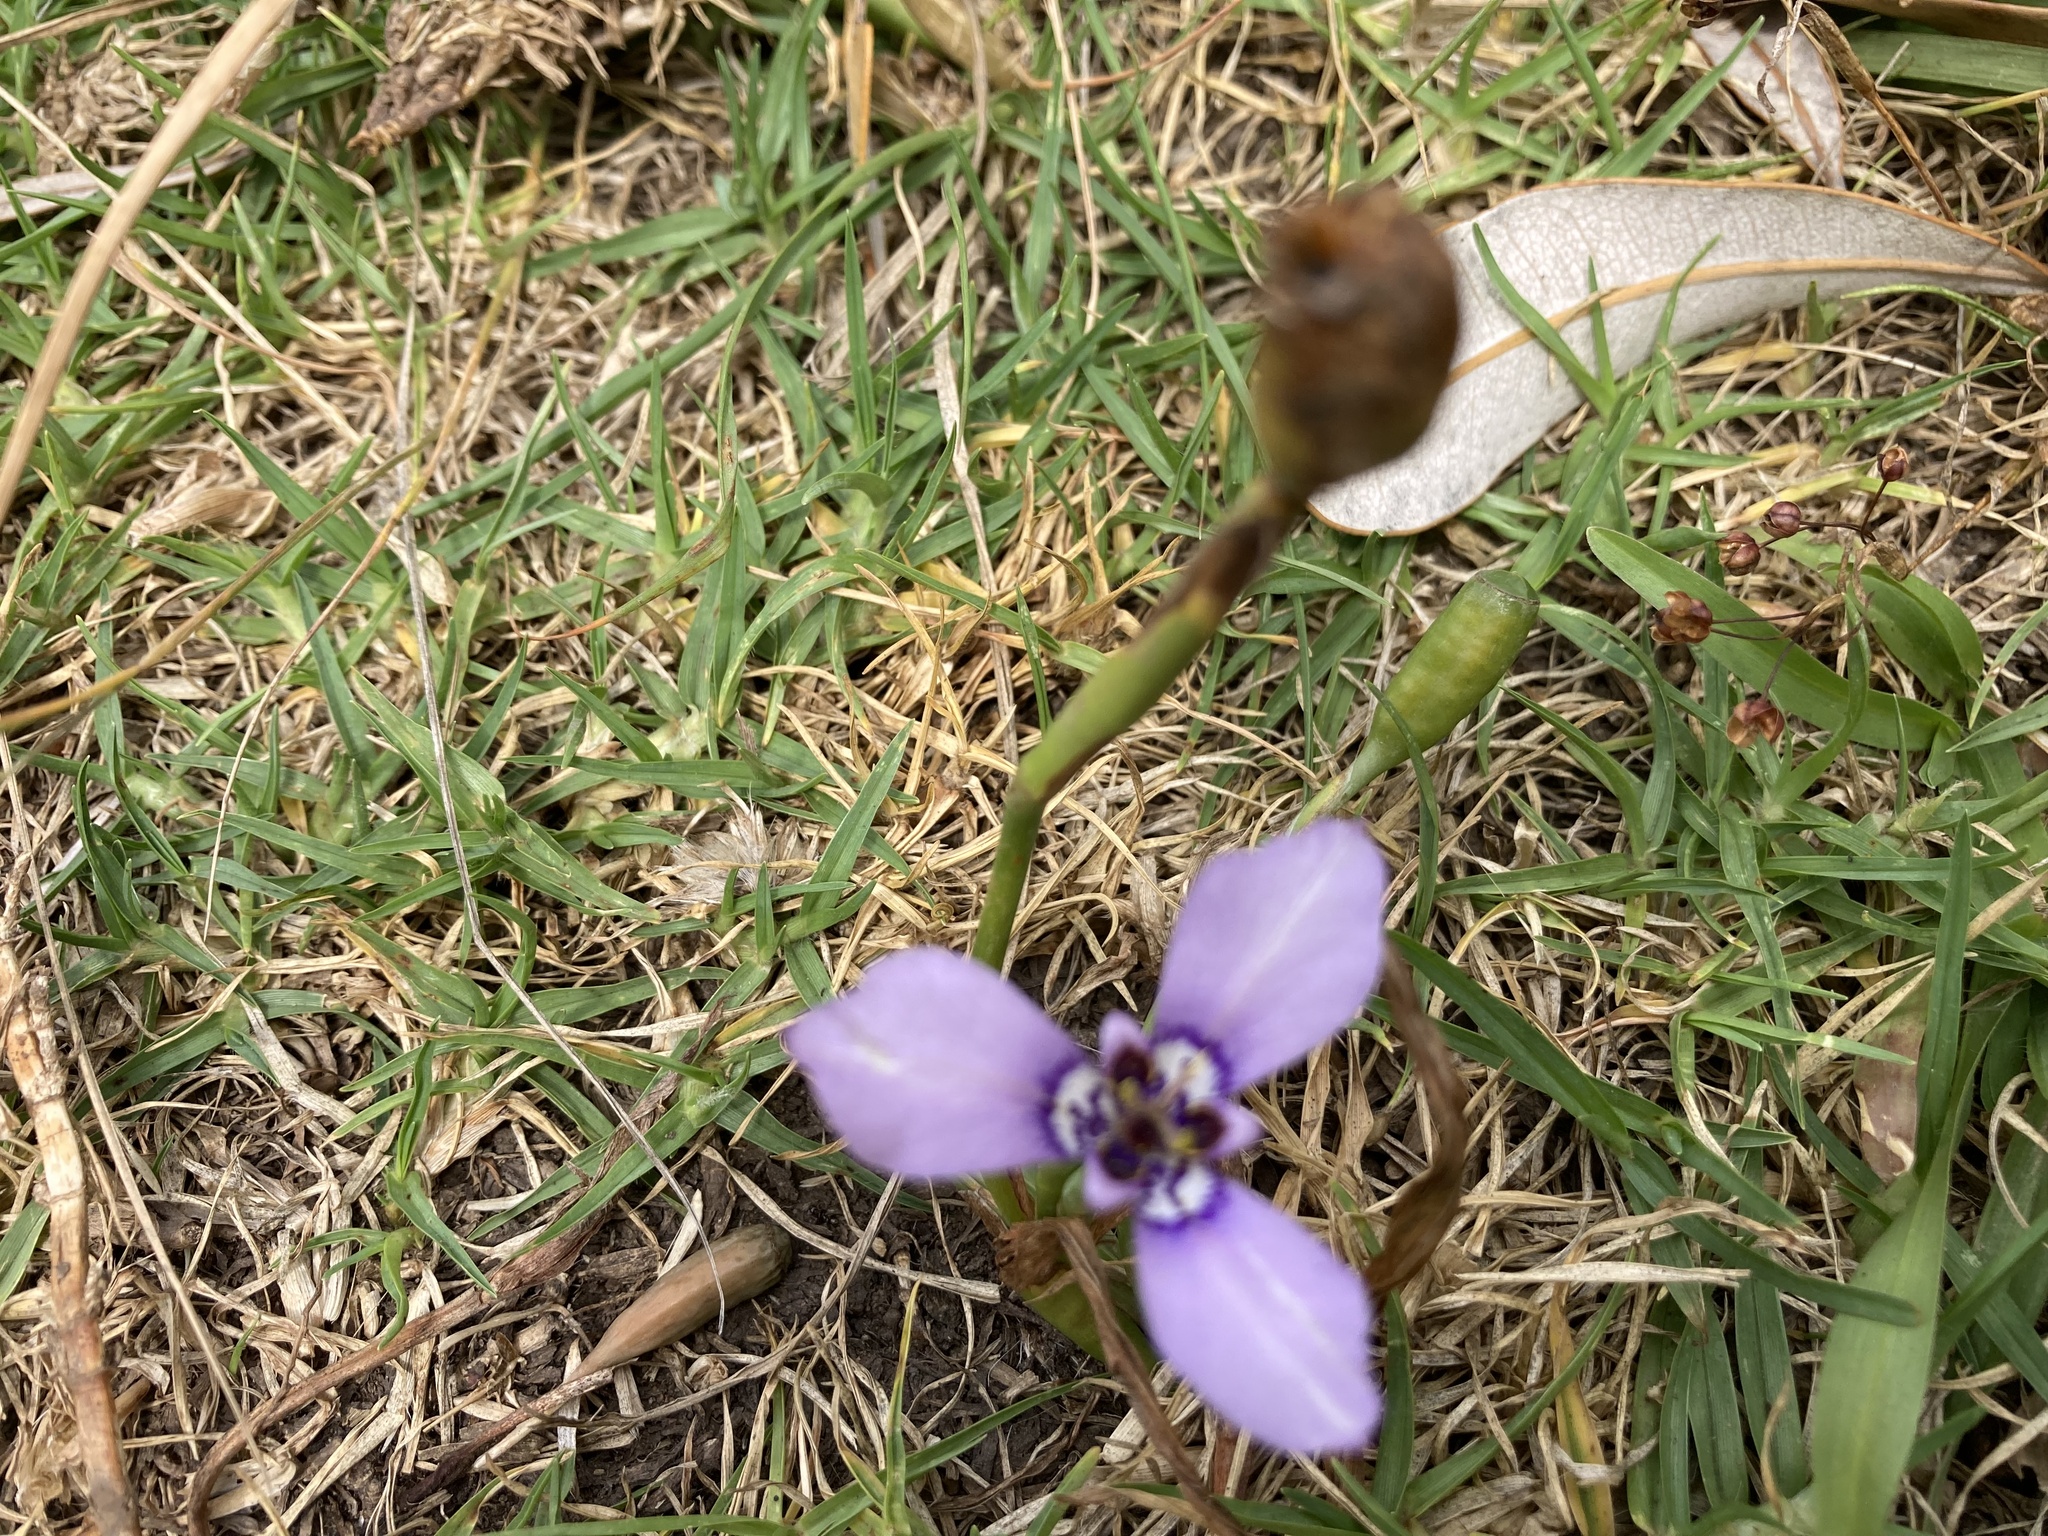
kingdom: Plantae
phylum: Tracheophyta
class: Liliopsida
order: Asparagales
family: Iridaceae
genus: Herbertia
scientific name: Herbertia lahue
